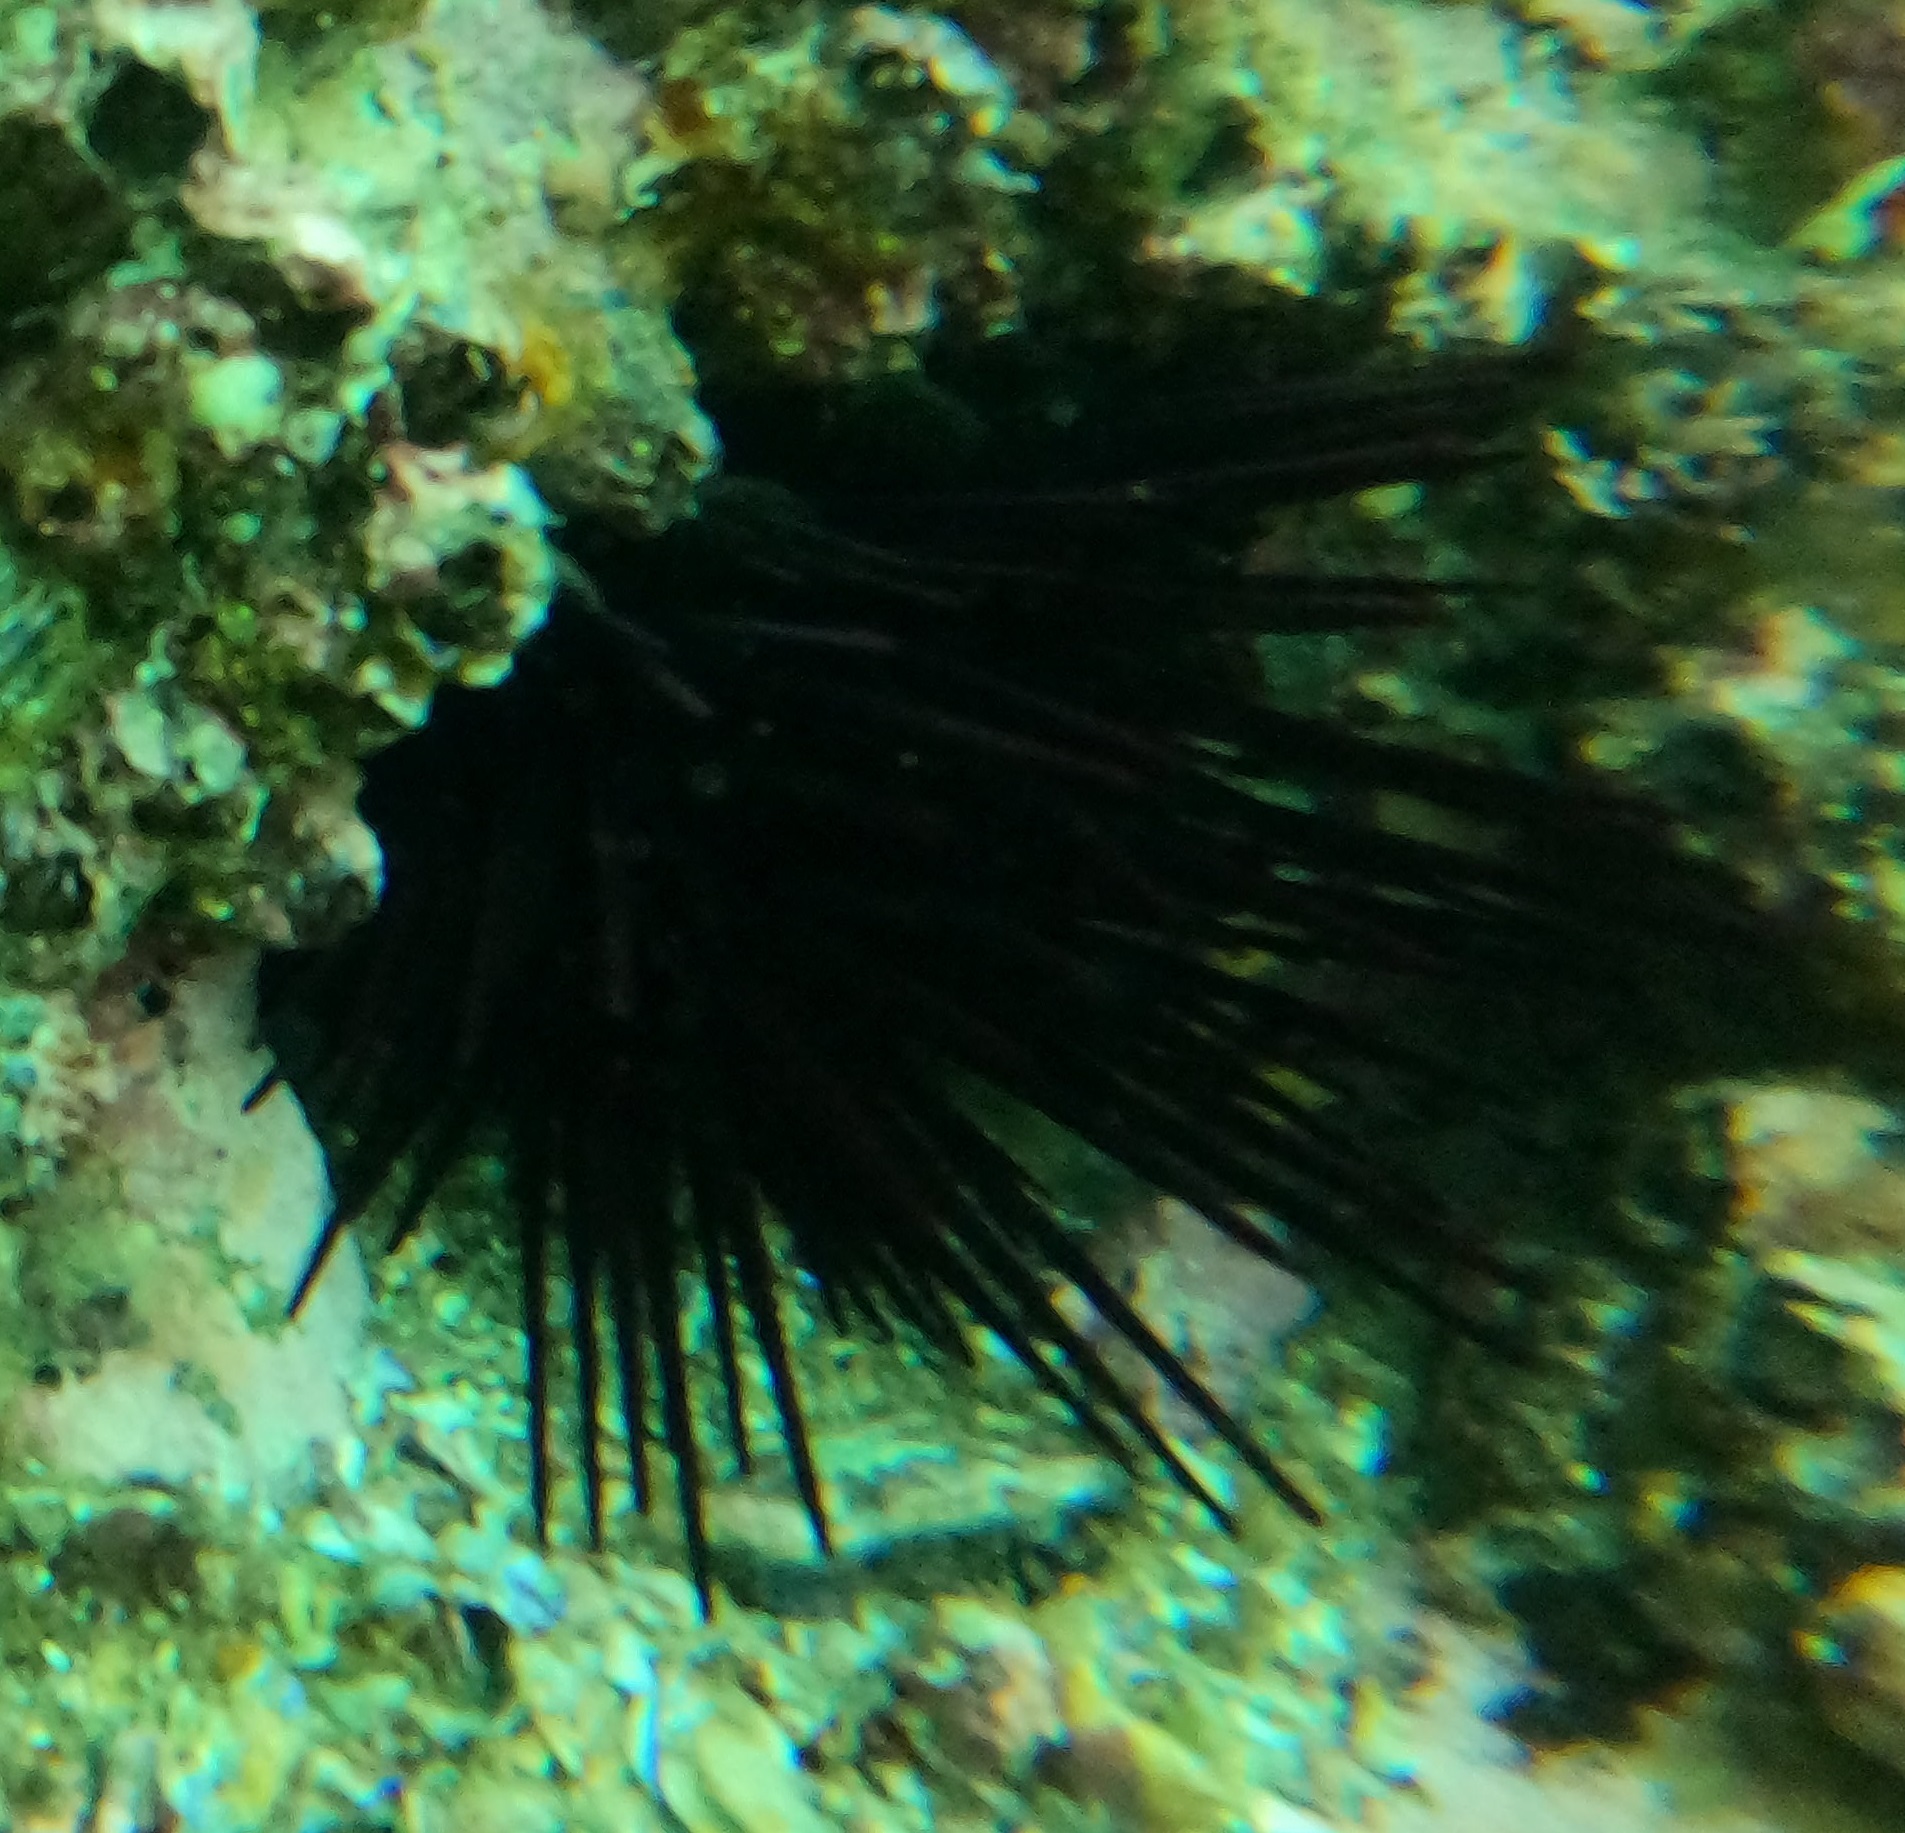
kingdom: Animalia
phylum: Echinodermata
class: Echinoidea
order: Diadematoida
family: Diadematidae
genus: Centrostephanus
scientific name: Centrostephanus rodgersii
